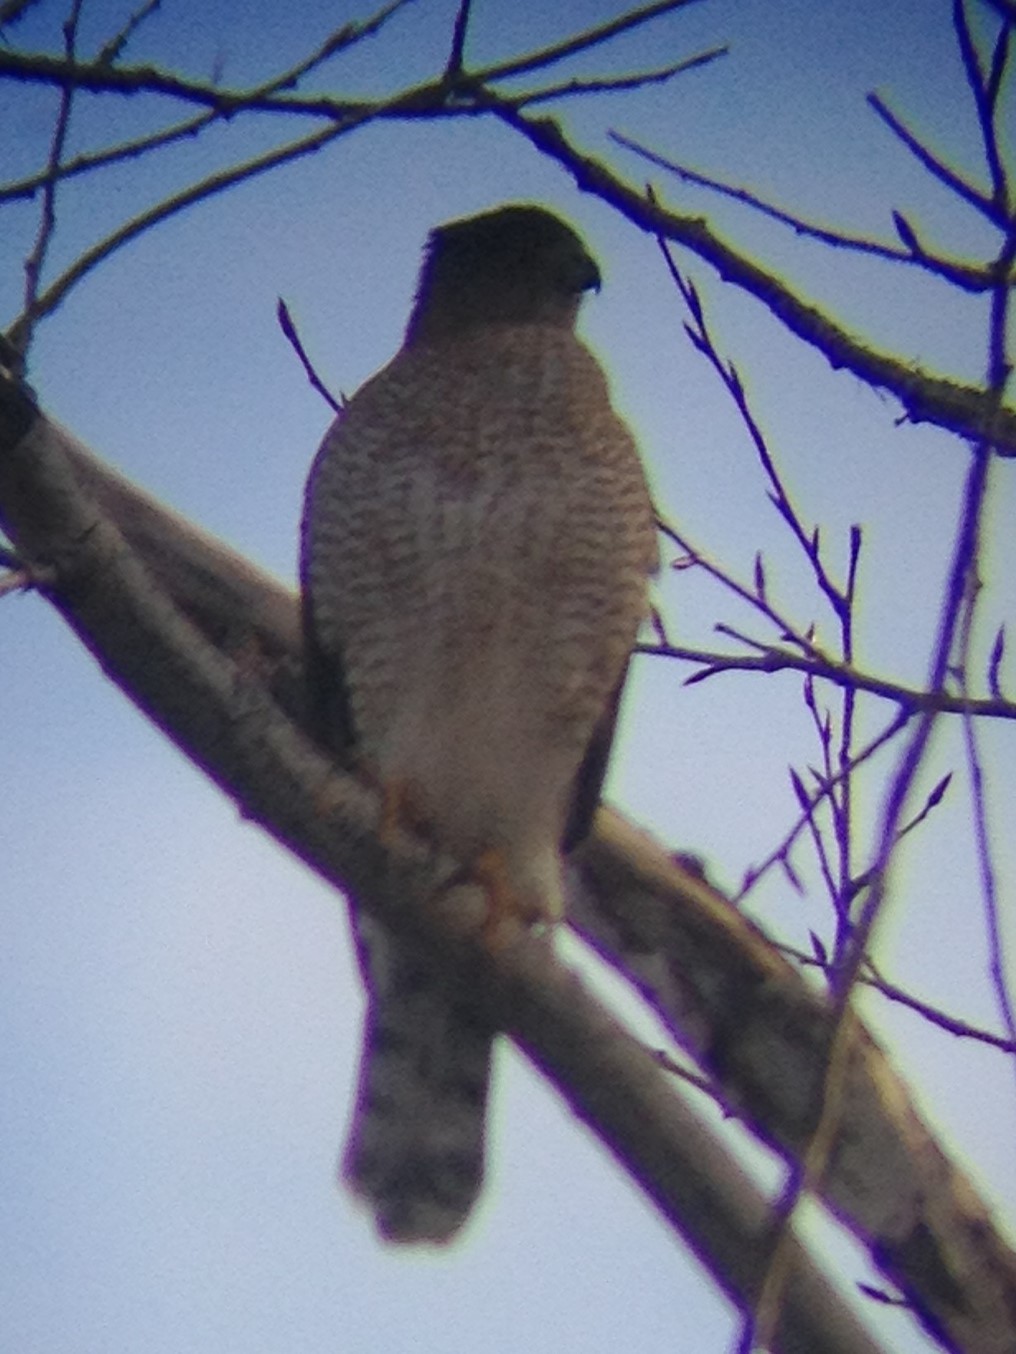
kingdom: Animalia
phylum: Chordata
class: Aves
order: Accipitriformes
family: Accipitridae
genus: Accipiter
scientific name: Accipiter cooperii
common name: Cooper's hawk
